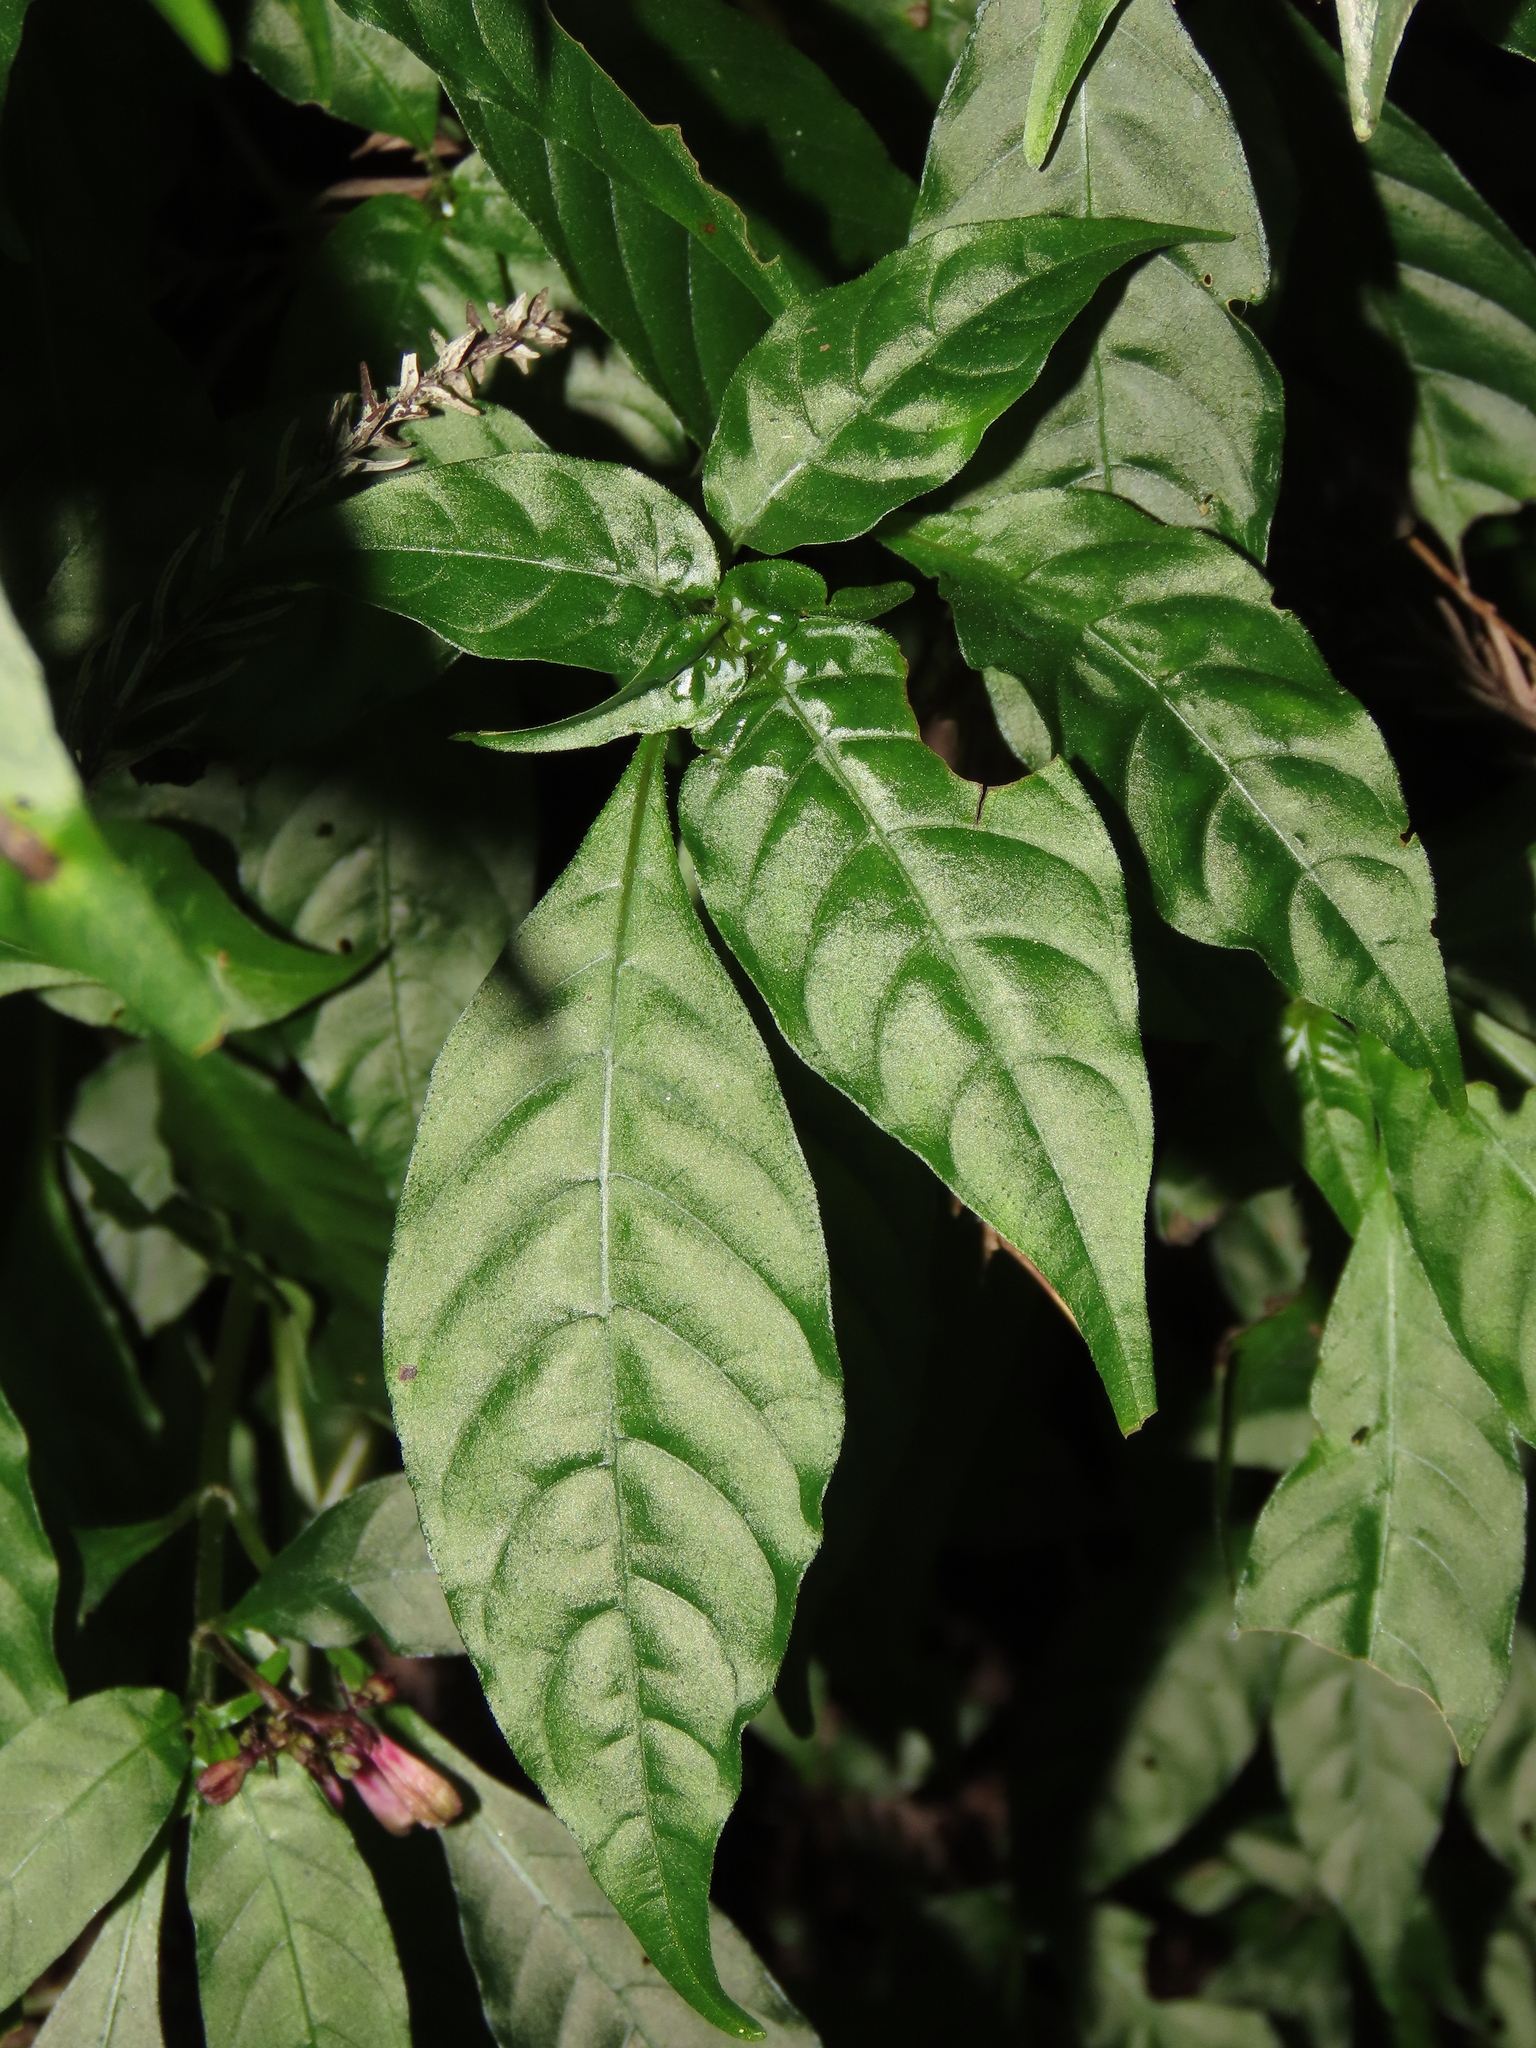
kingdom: Plantae
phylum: Tracheophyta
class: Magnoliopsida
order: Gentianales
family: Rubiaceae
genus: Ophiorrhiza
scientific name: Ophiorrhiza japonica
